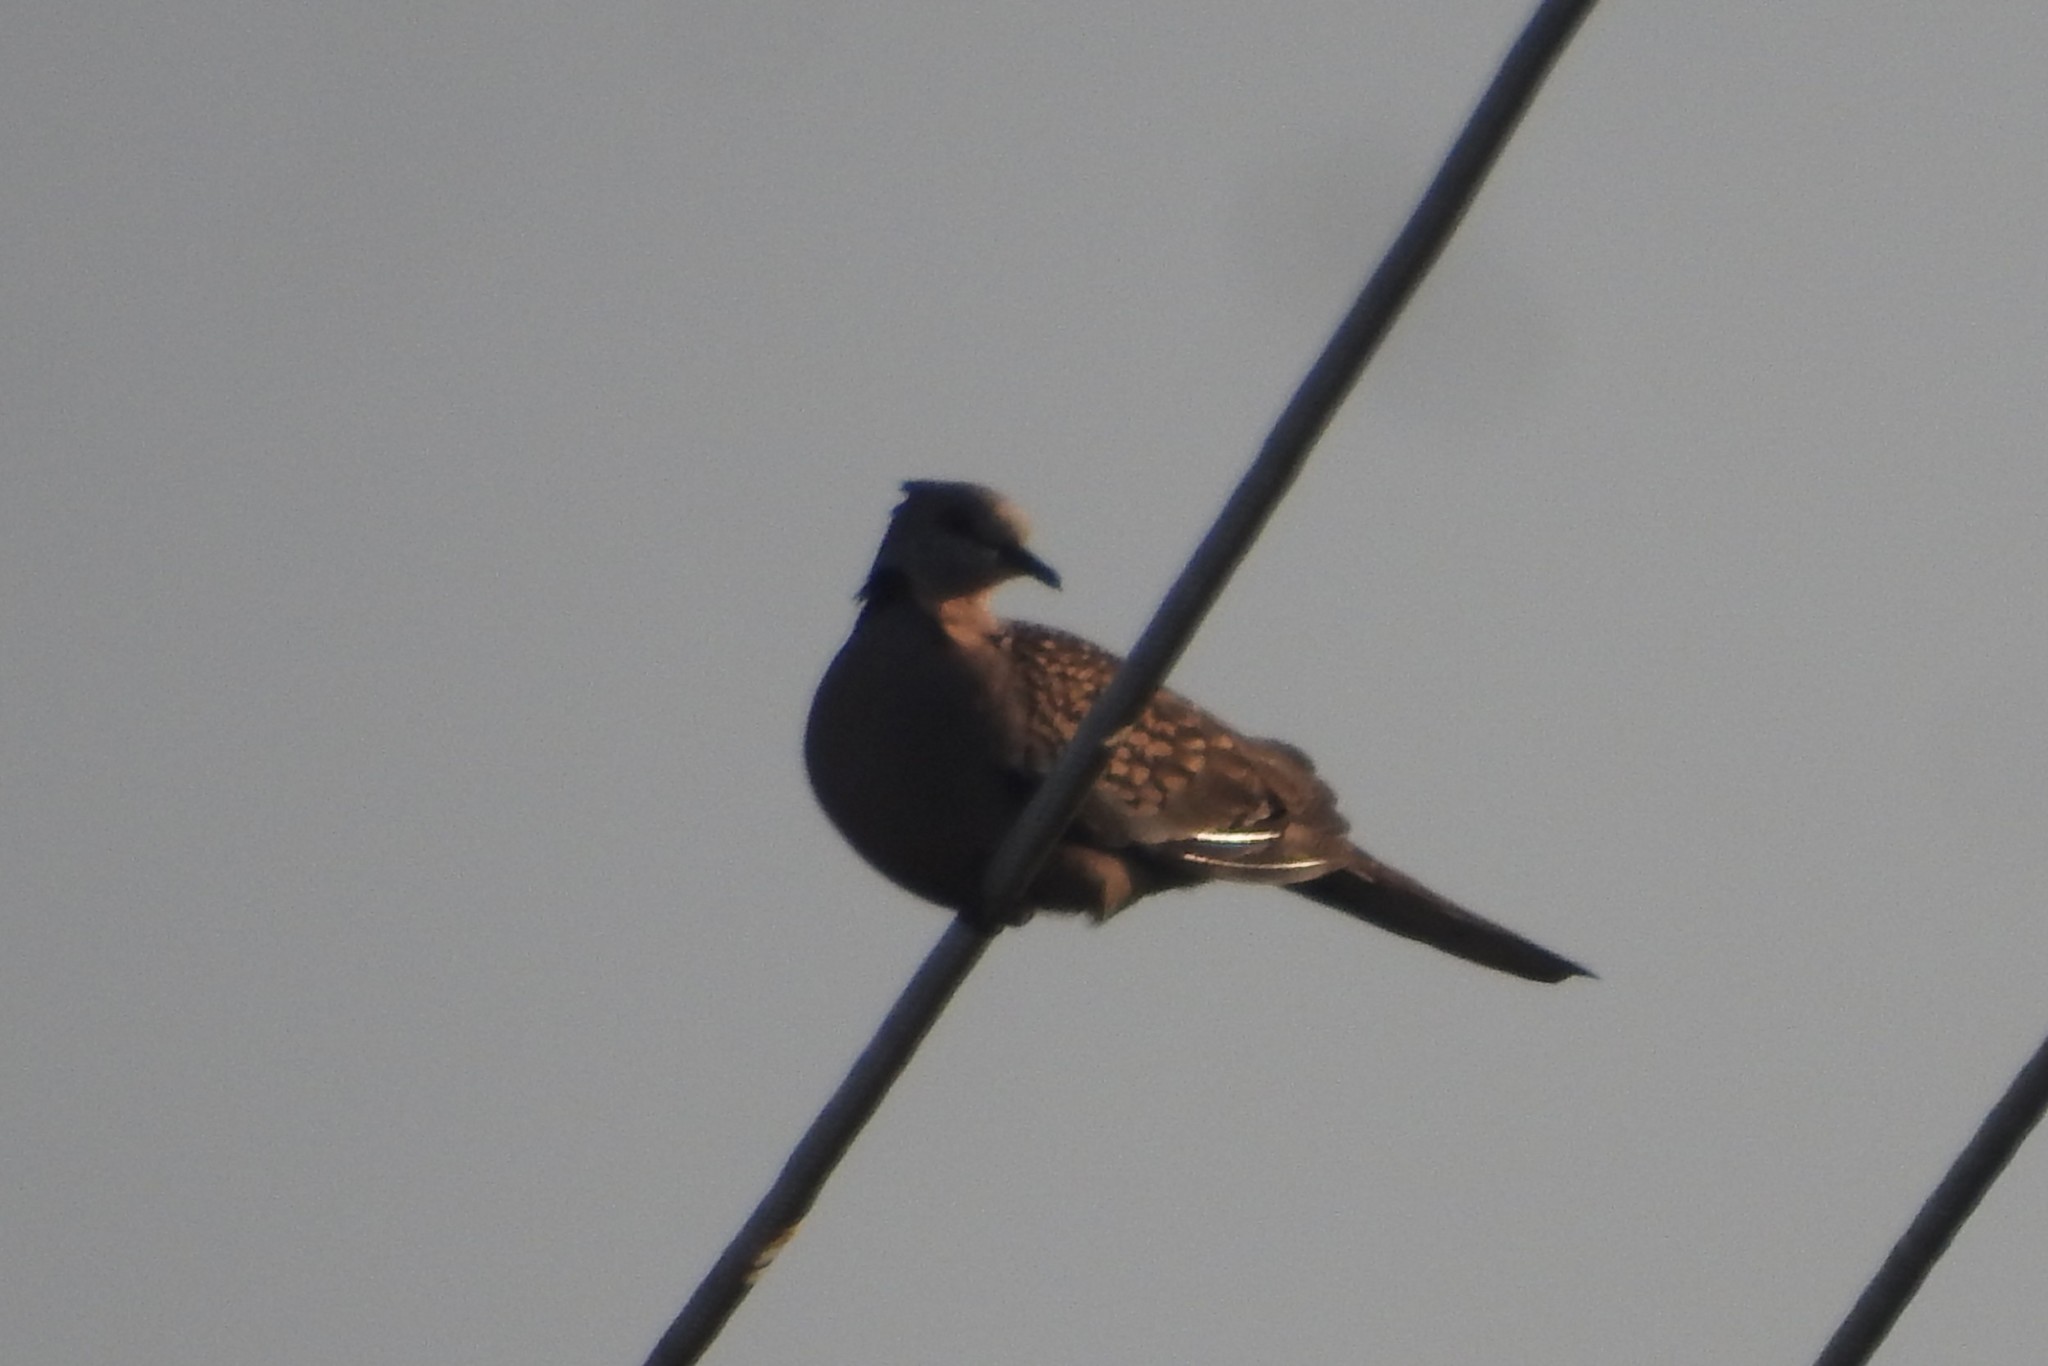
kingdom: Animalia
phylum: Chordata
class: Aves
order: Columbiformes
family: Columbidae
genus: Spilopelia
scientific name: Spilopelia chinensis
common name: Spotted dove
